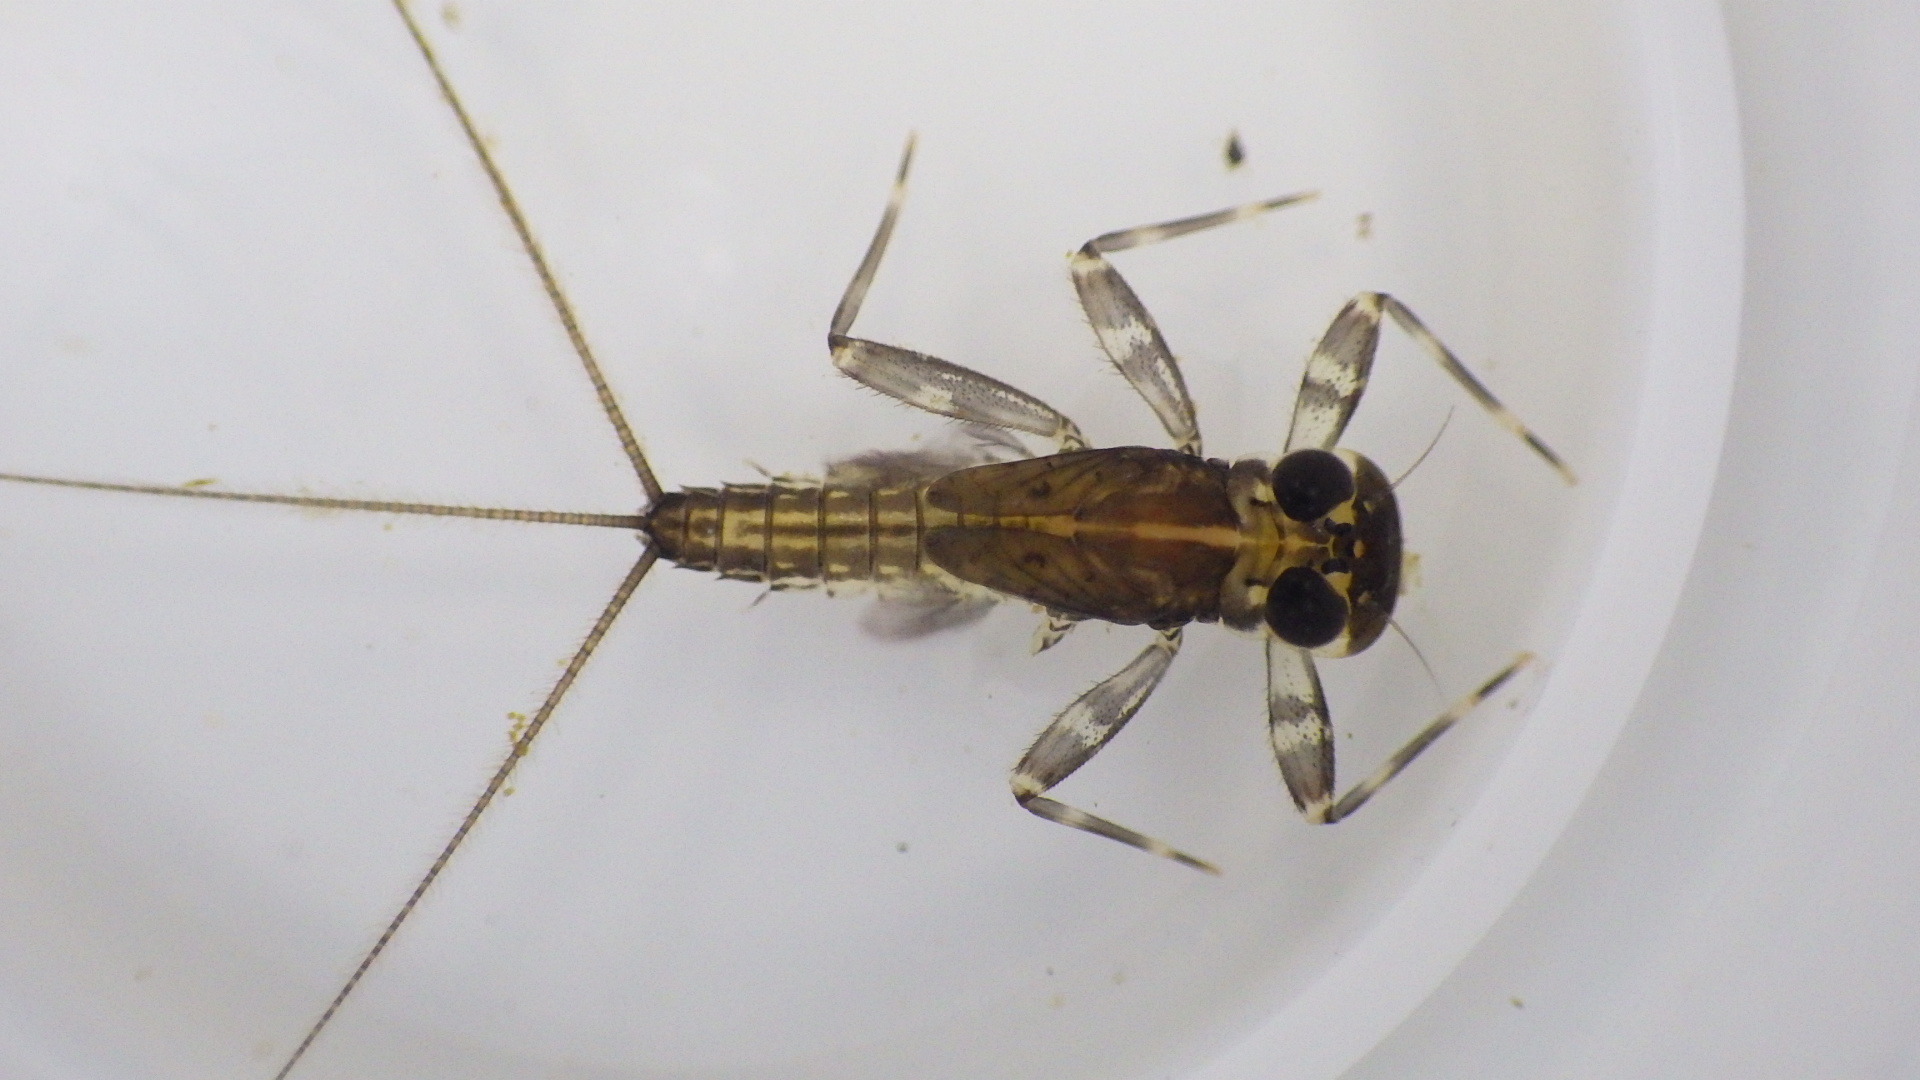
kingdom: Animalia
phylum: Arthropoda
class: Insecta
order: Ephemeroptera
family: Heptageniidae
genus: Stenacron
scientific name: Stenacron interpunctatum
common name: Orange cahill
